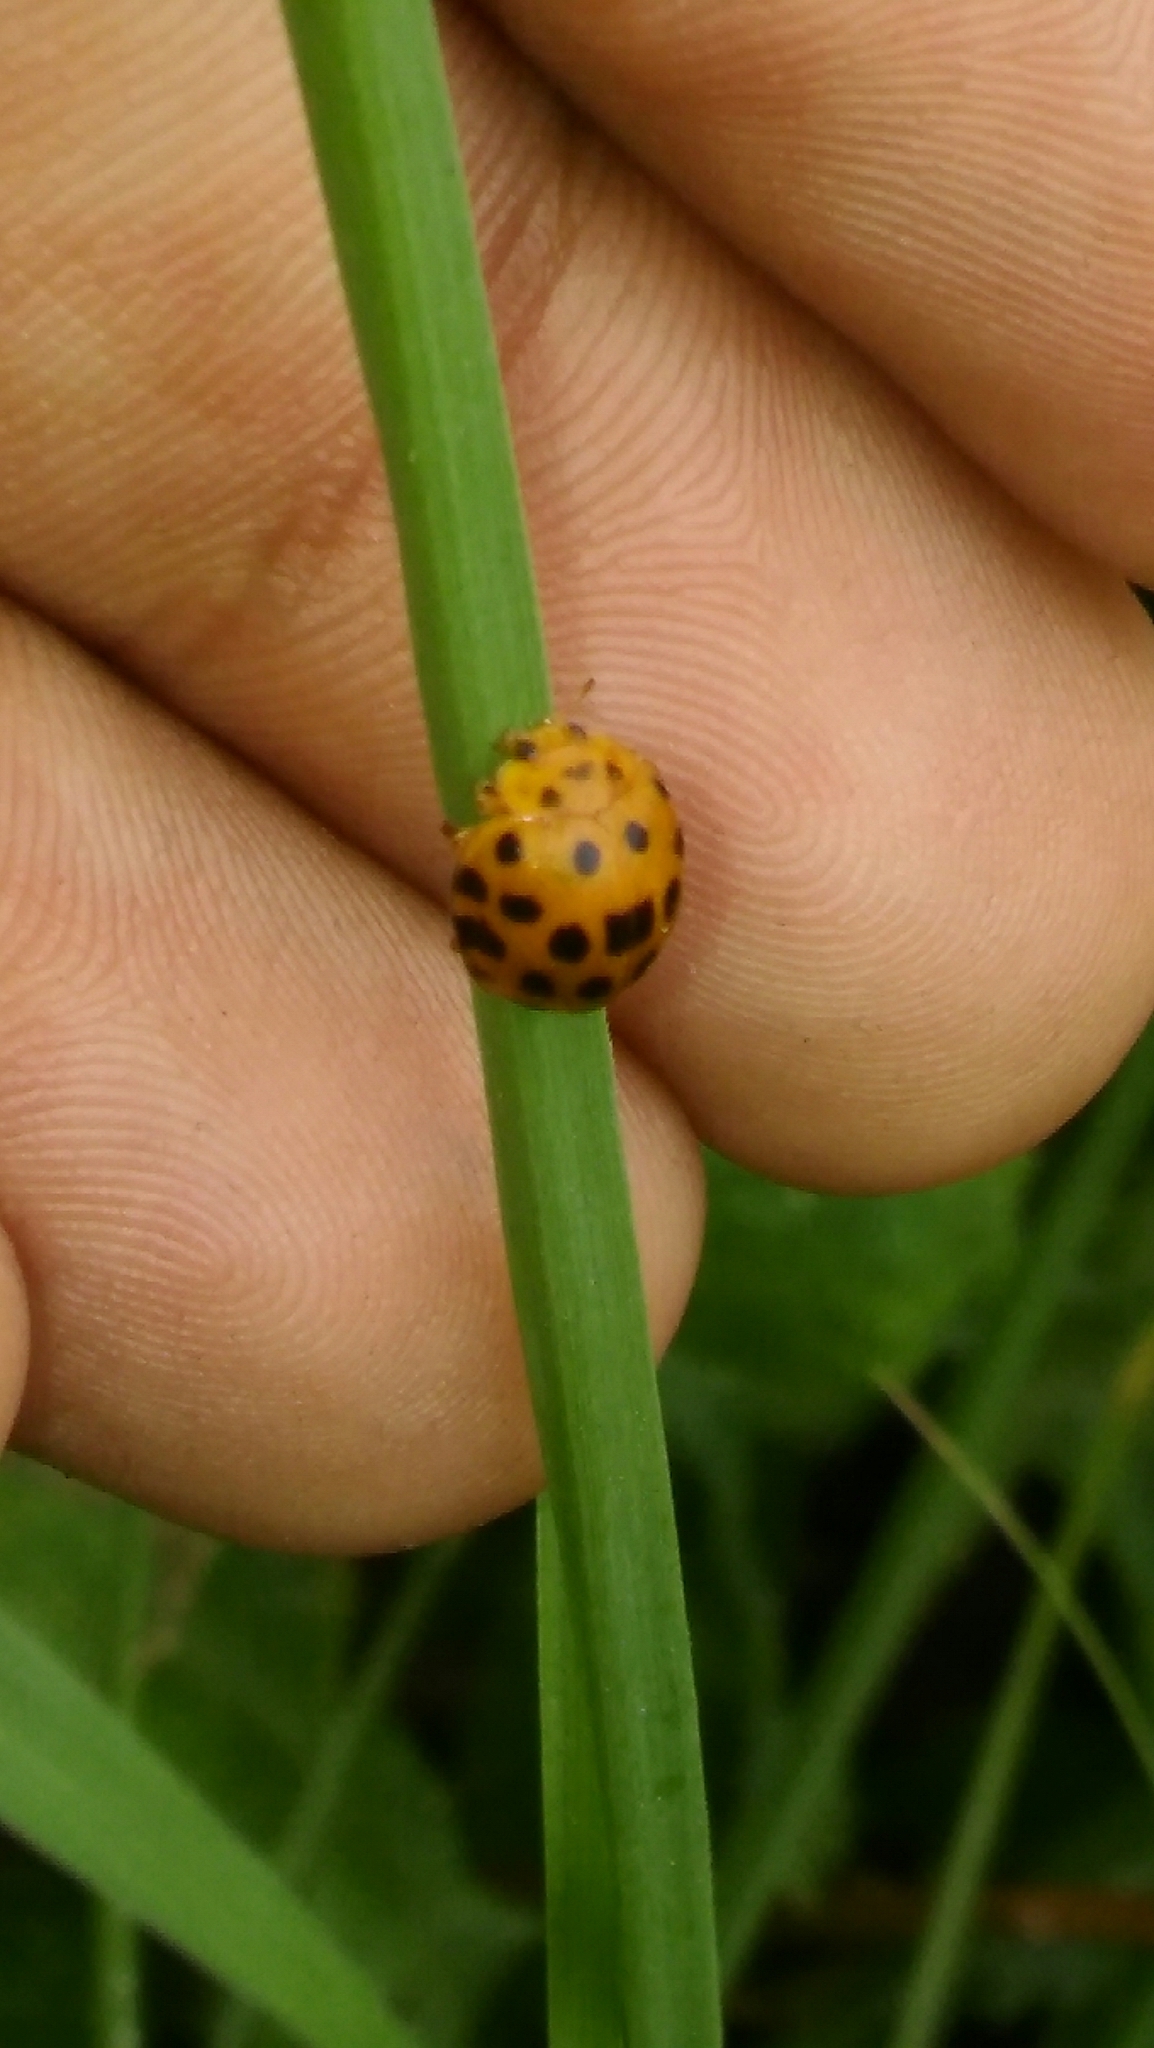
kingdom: Animalia
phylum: Arthropoda
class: Insecta
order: Coleoptera
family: Coccinellidae
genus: Henosepilachna
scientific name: Henosepilachna vigintioctopunctata
